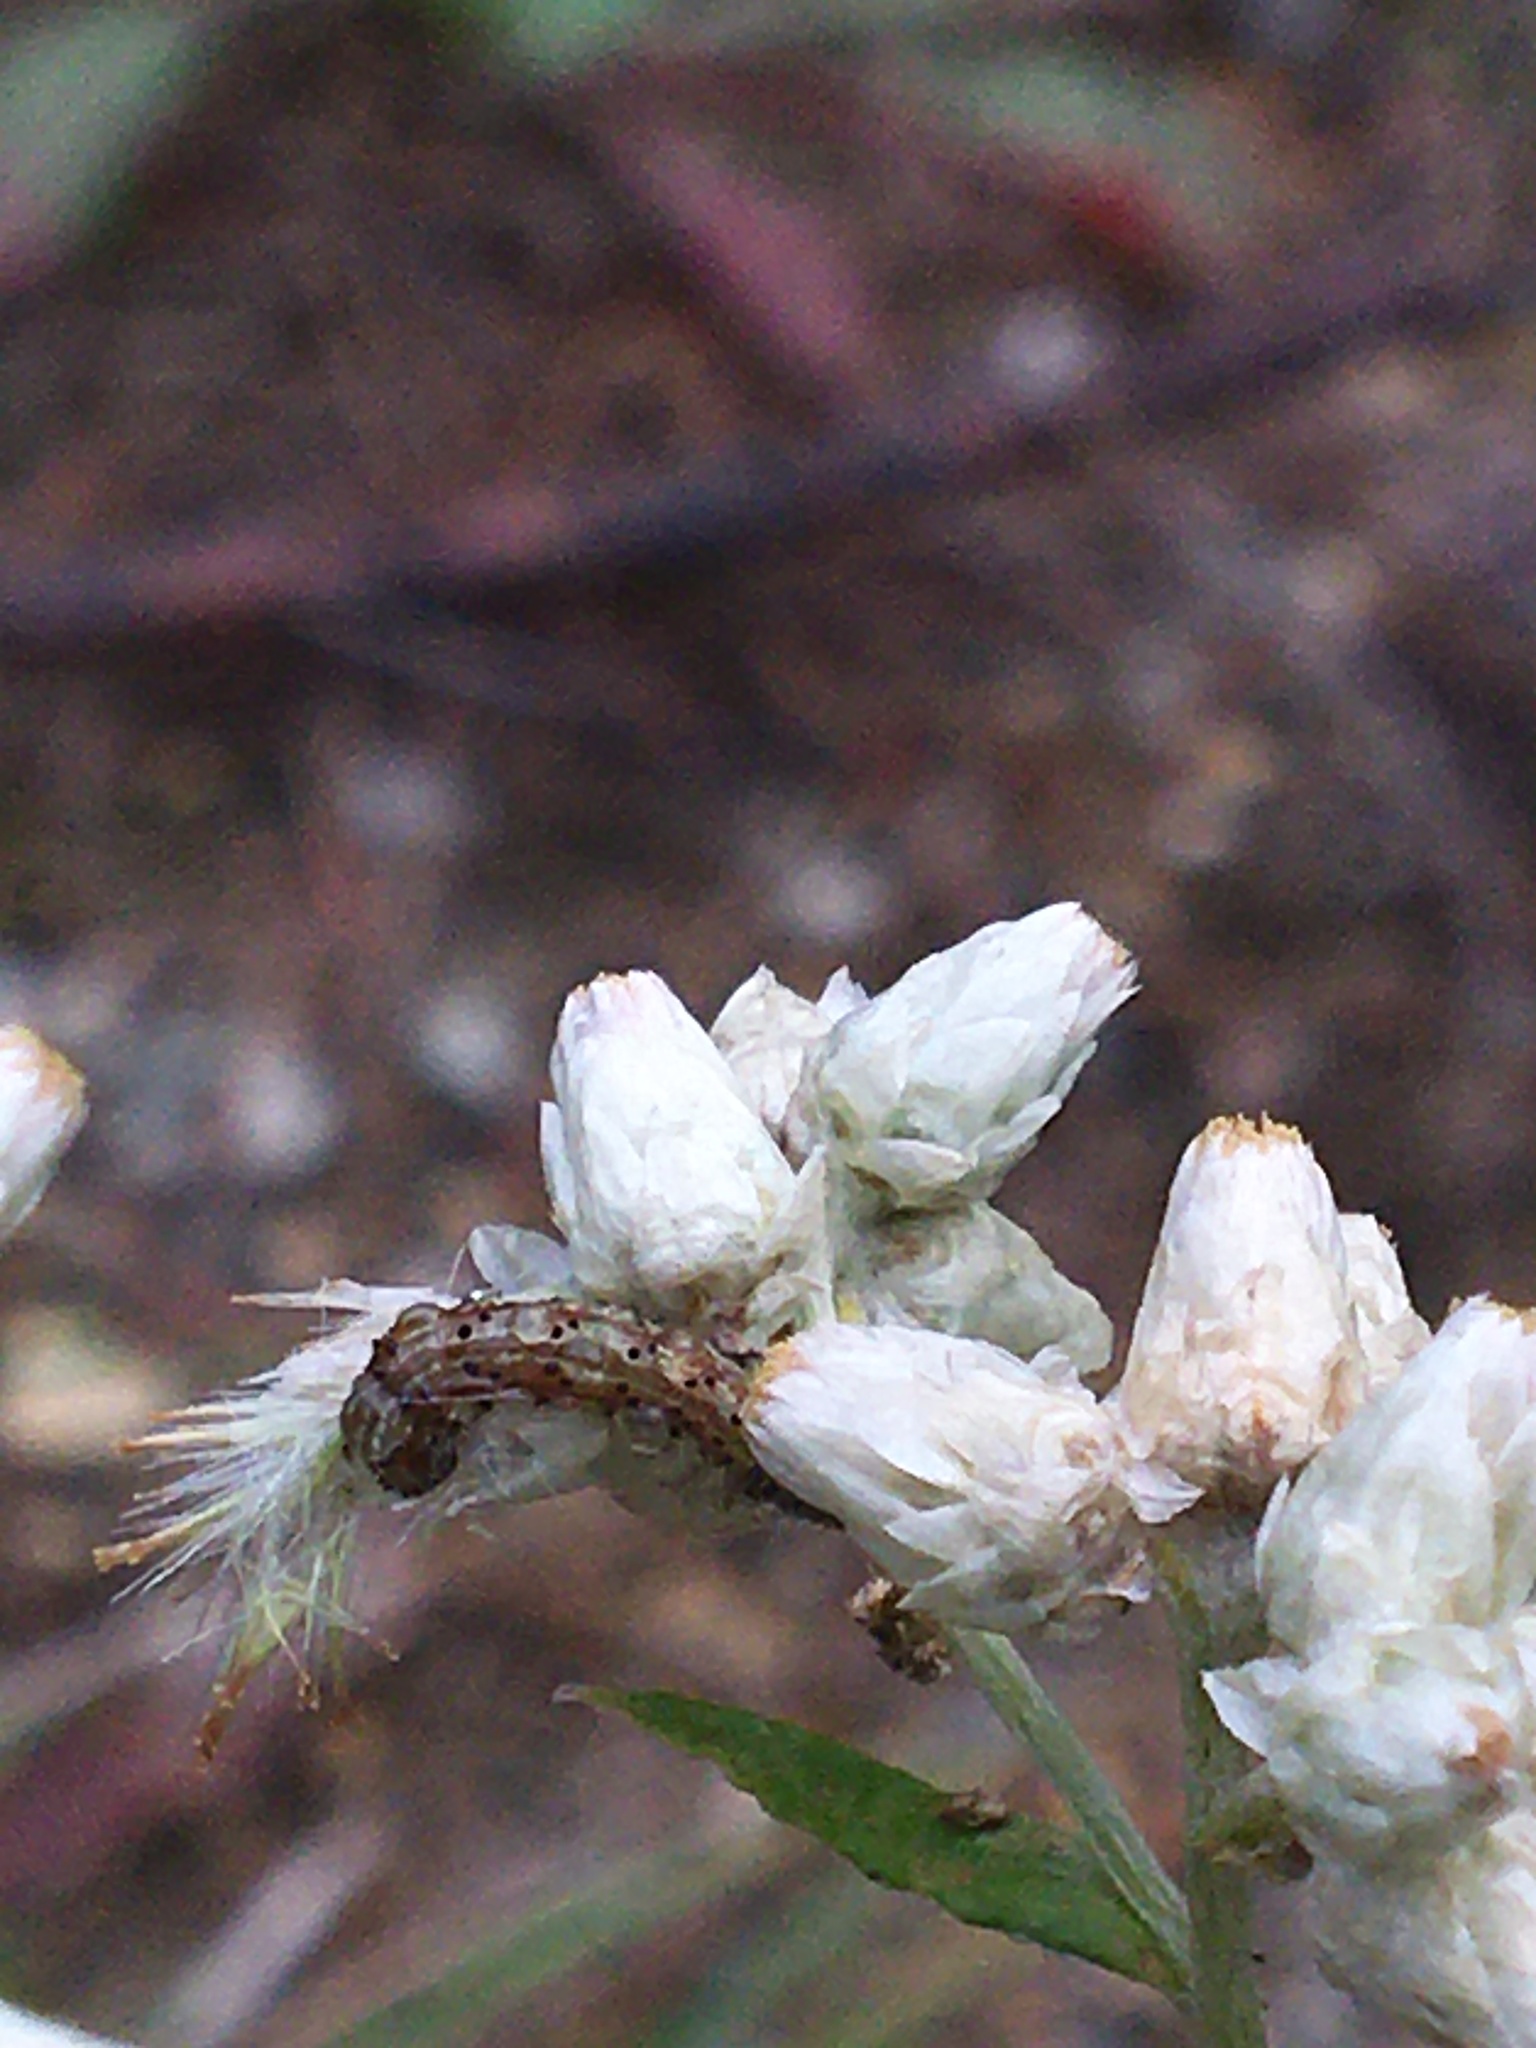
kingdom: Animalia
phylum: Arthropoda
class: Insecta
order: Lepidoptera
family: Noctuidae
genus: Chloridea
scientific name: Chloridea virescens
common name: Tobacco budworm
